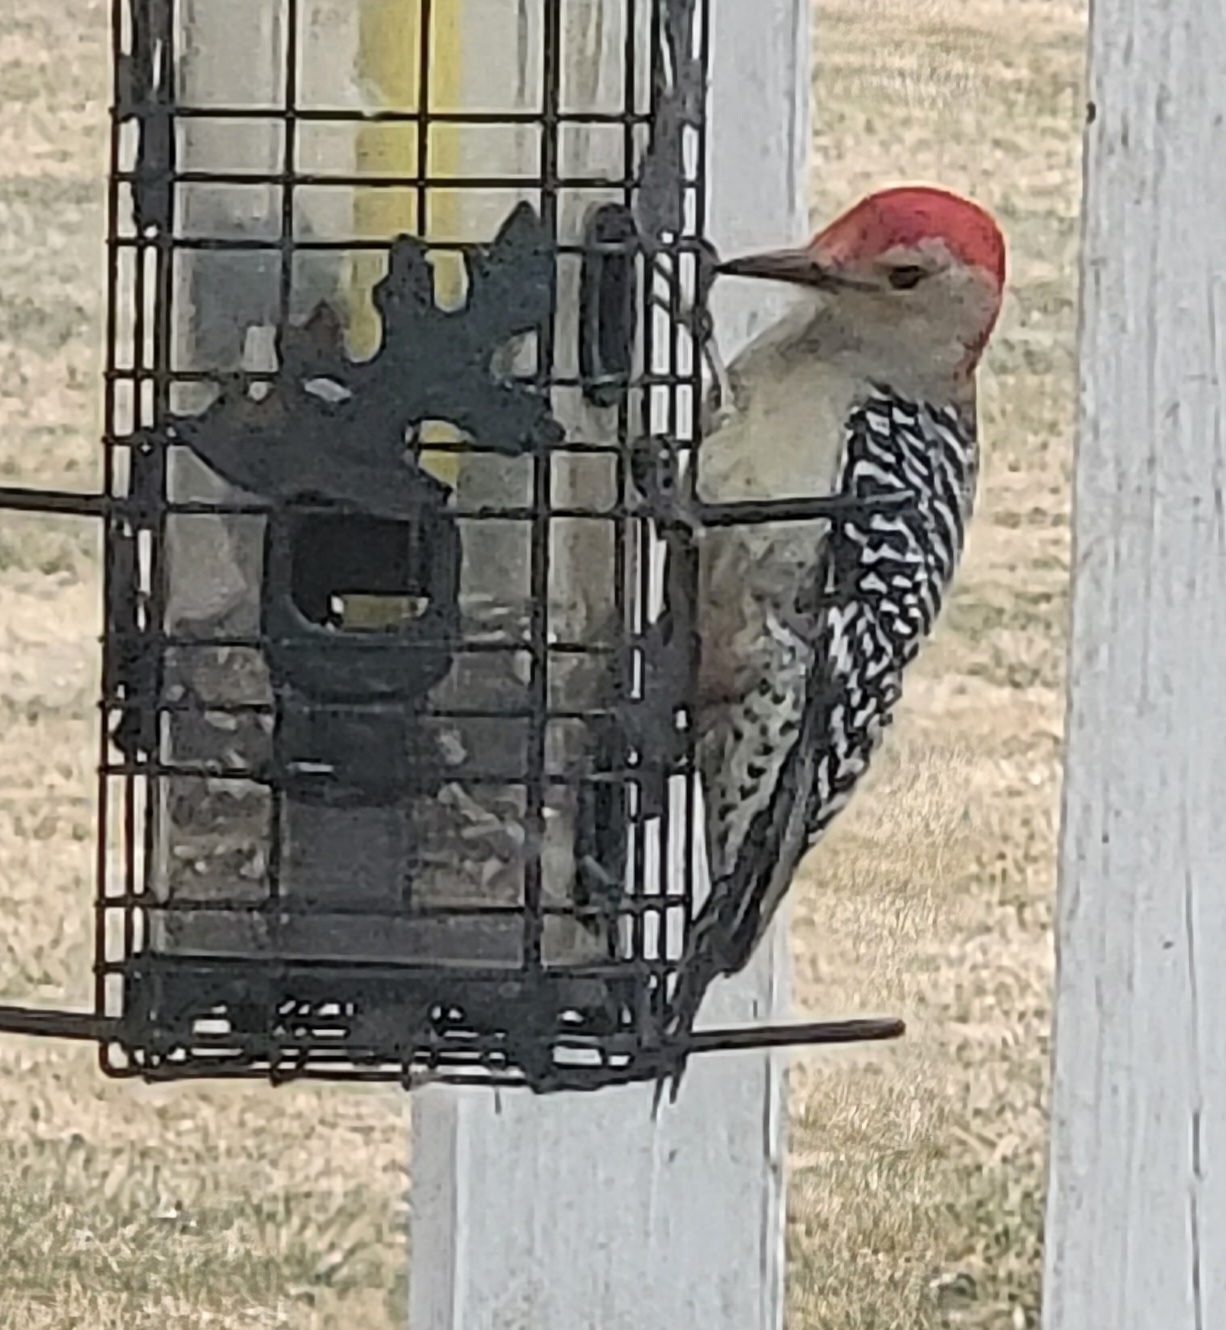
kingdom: Animalia
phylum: Chordata
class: Aves
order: Piciformes
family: Picidae
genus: Melanerpes
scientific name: Melanerpes carolinus
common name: Red-bellied woodpecker
